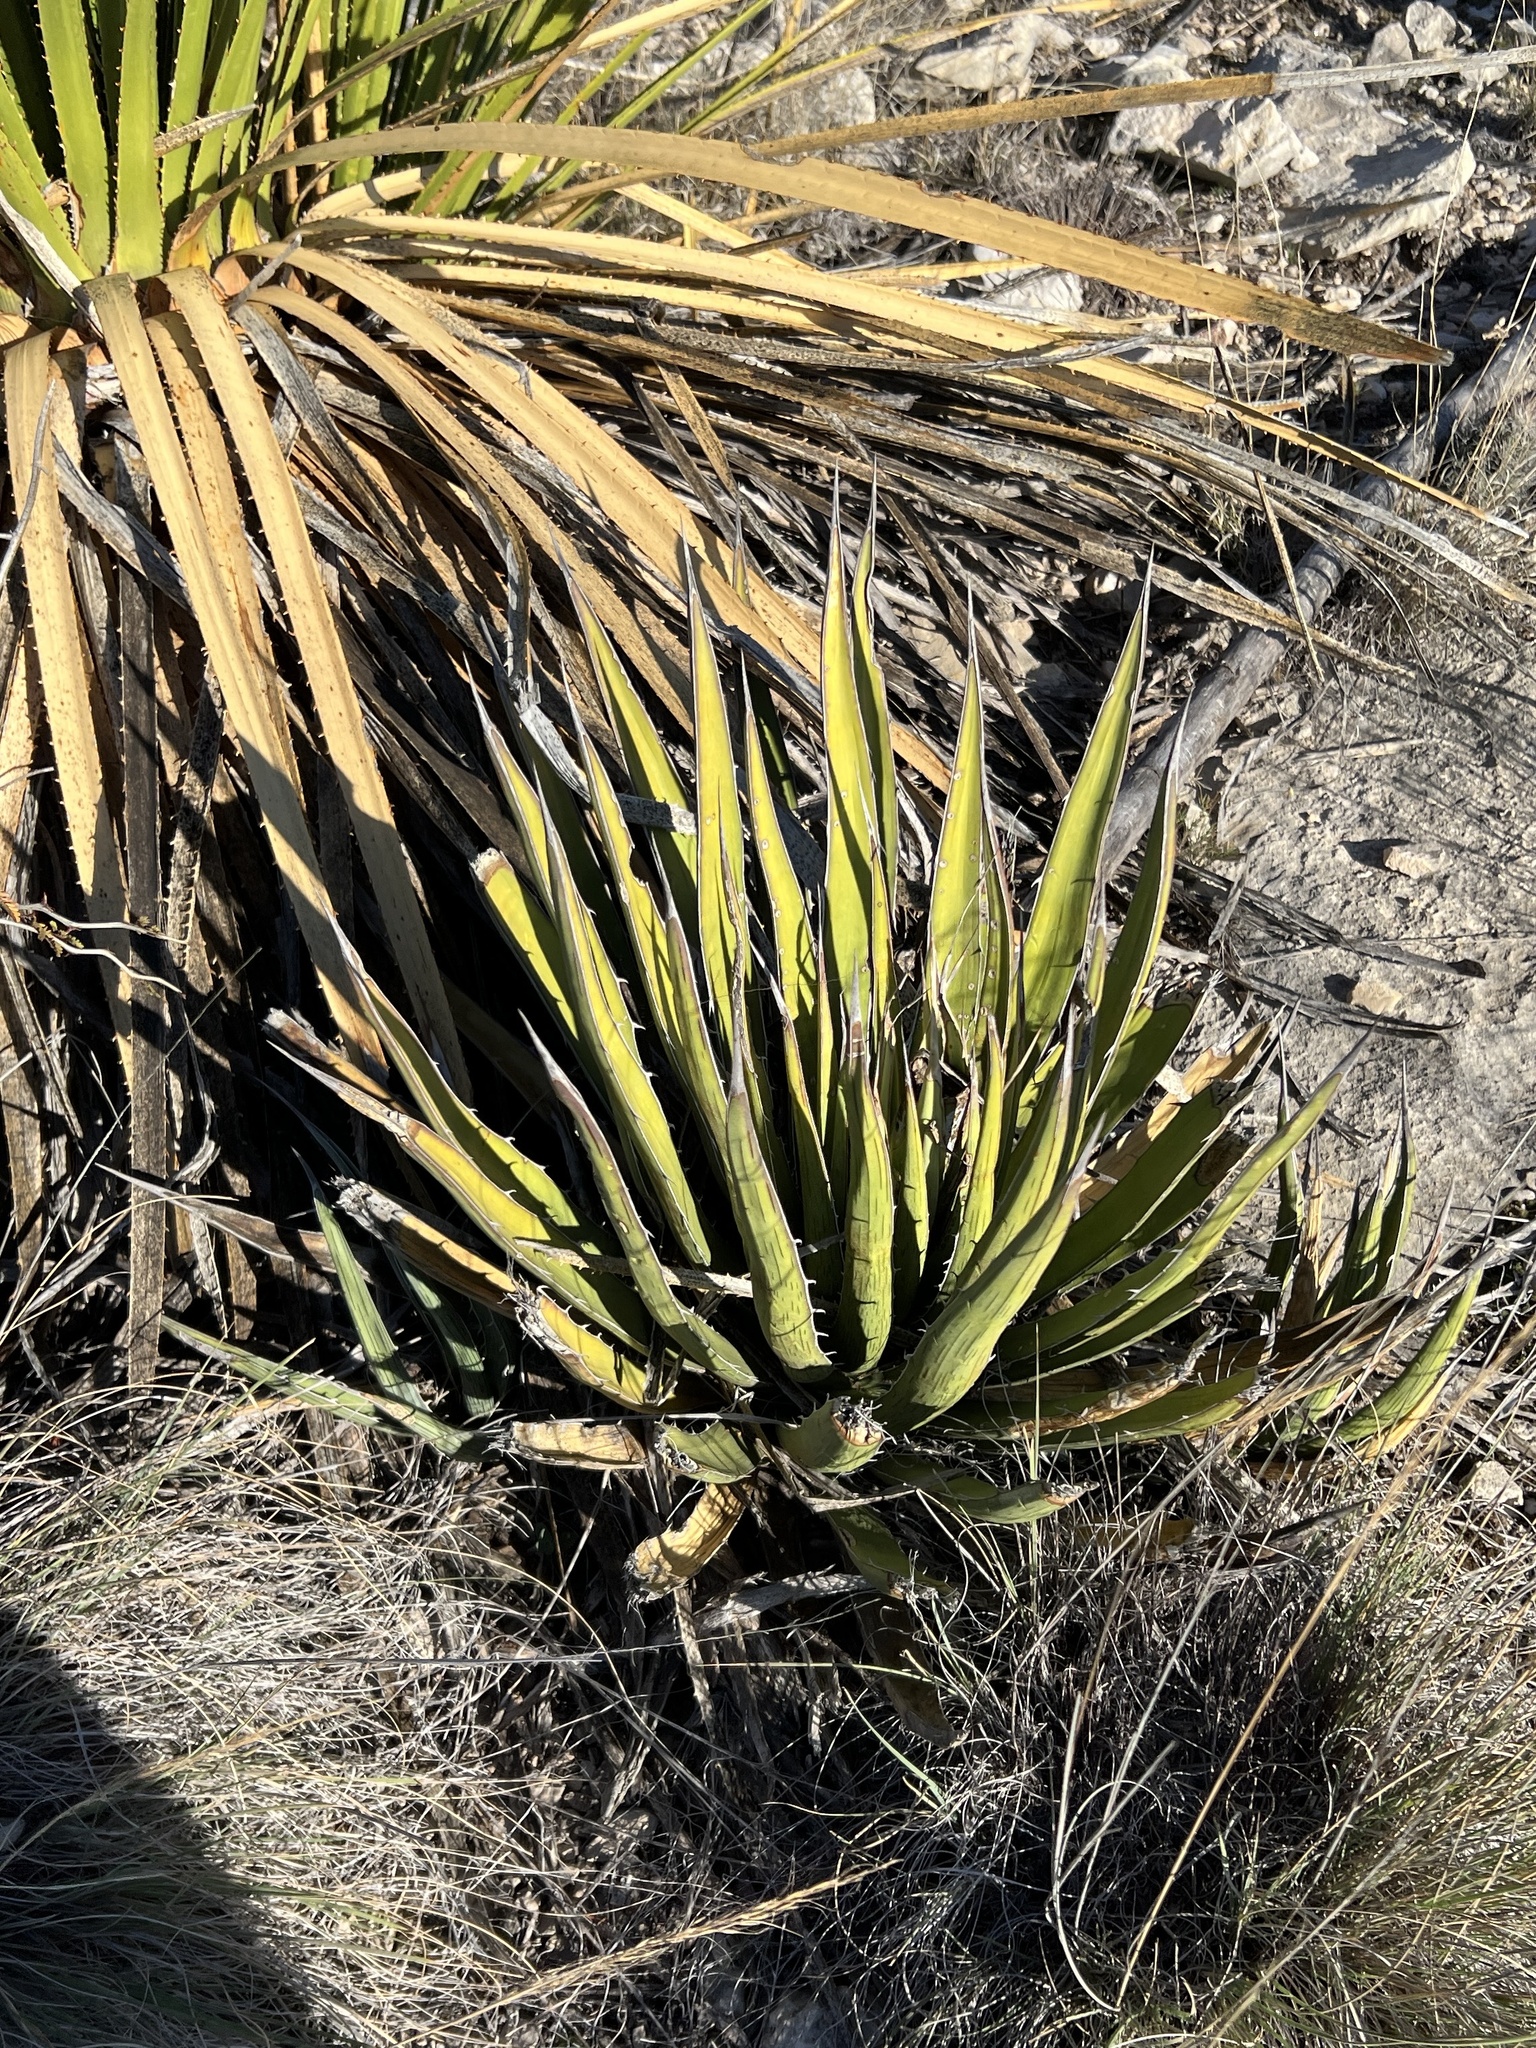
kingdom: Plantae
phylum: Tracheophyta
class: Liliopsida
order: Asparagales
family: Asparagaceae
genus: Agave
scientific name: Agave lechuguilla
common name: Lecheguilla agave
